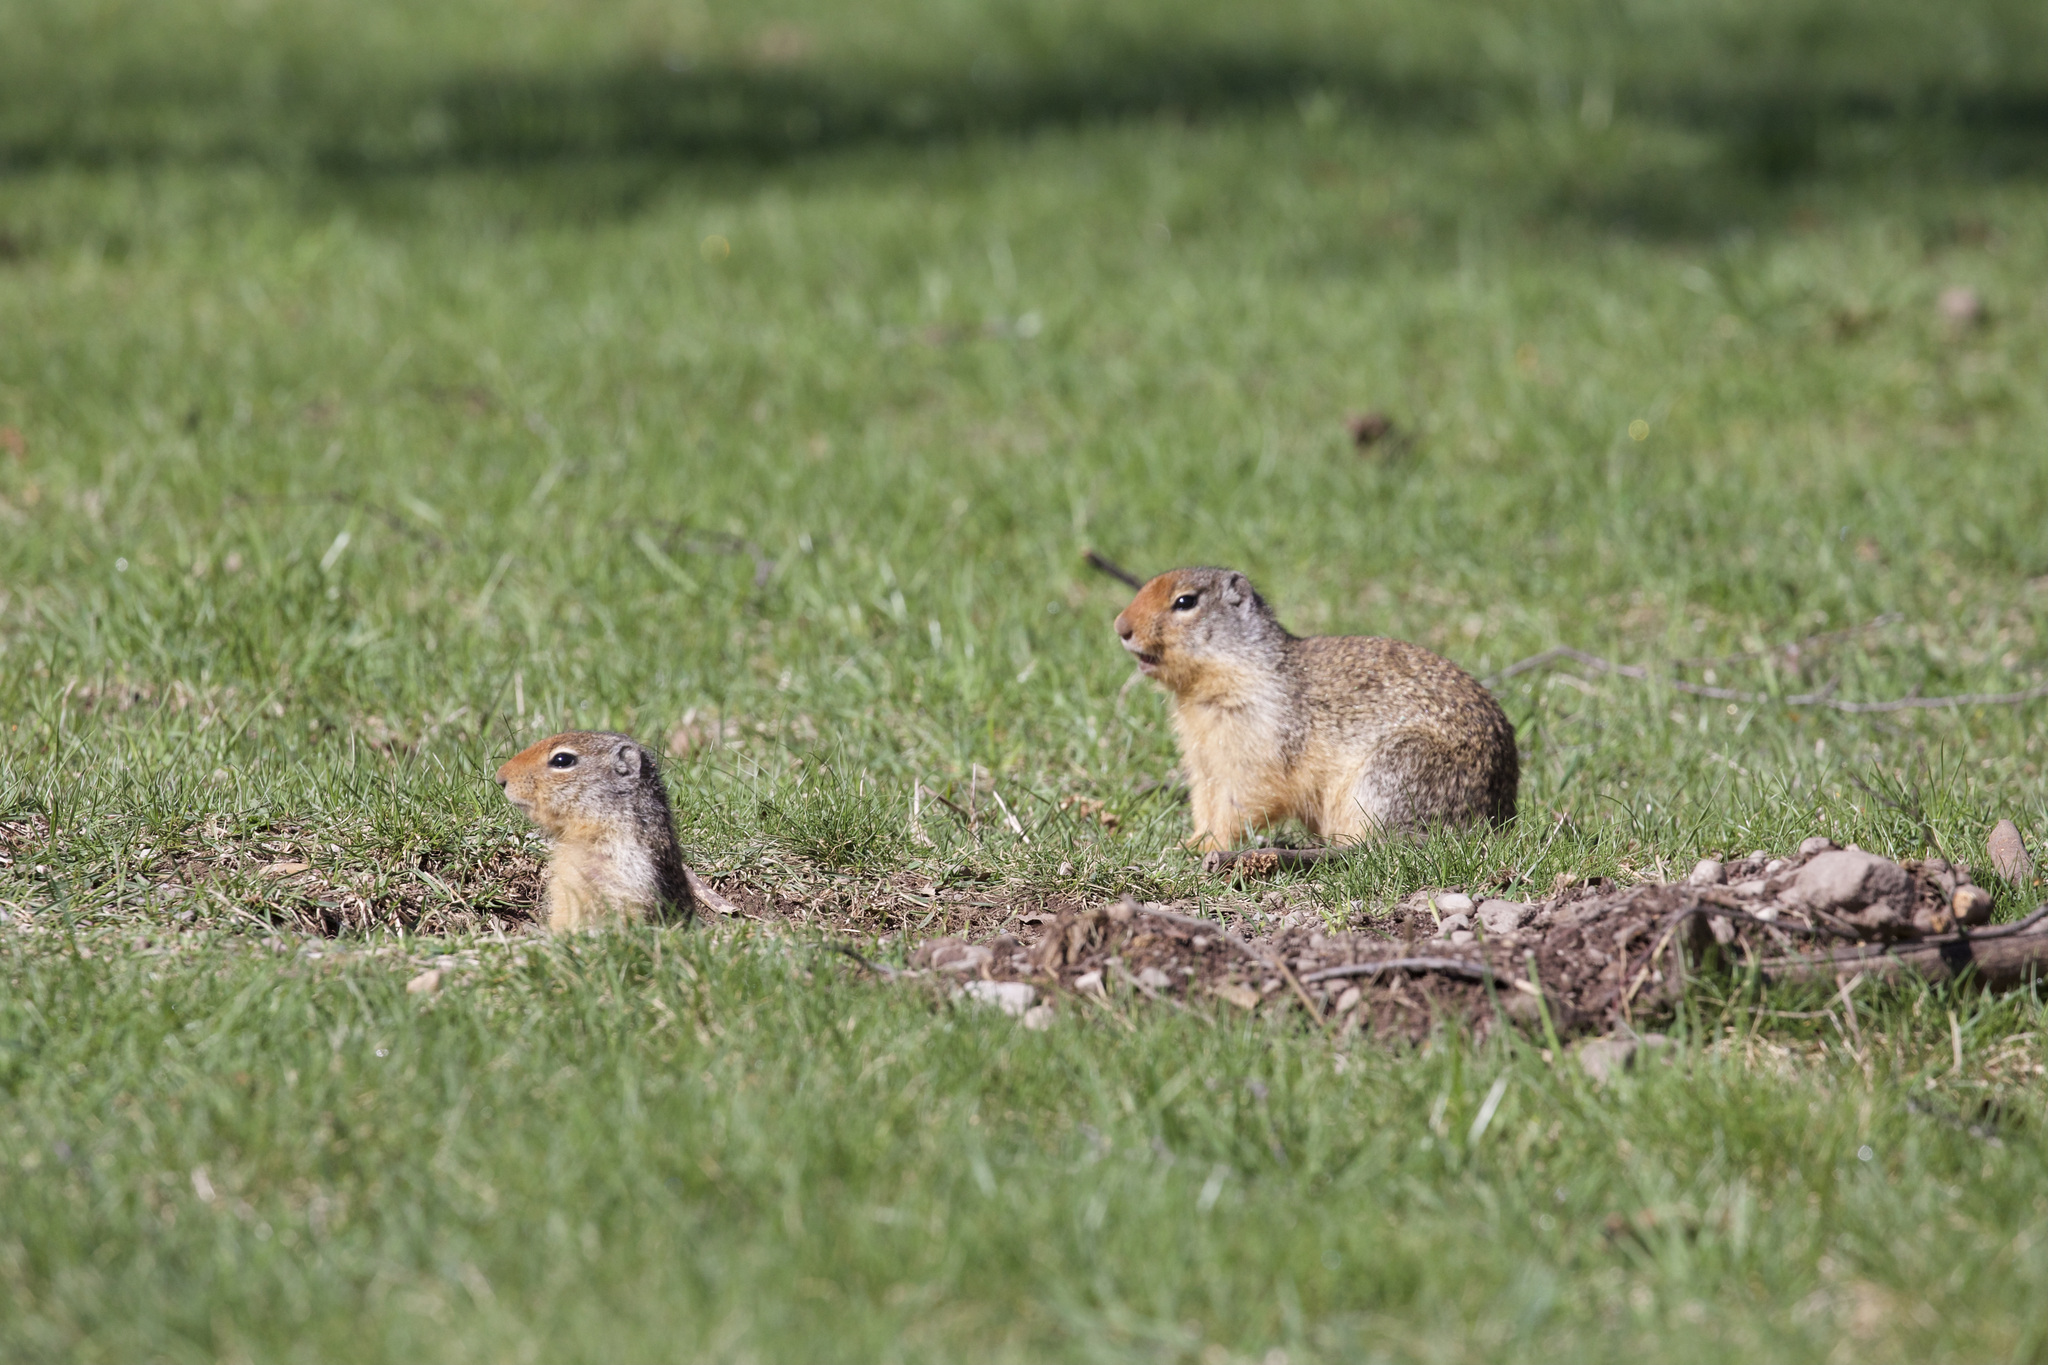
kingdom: Animalia
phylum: Chordata
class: Mammalia
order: Rodentia
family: Sciuridae
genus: Urocitellus
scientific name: Urocitellus columbianus
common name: Columbian ground squirrel
